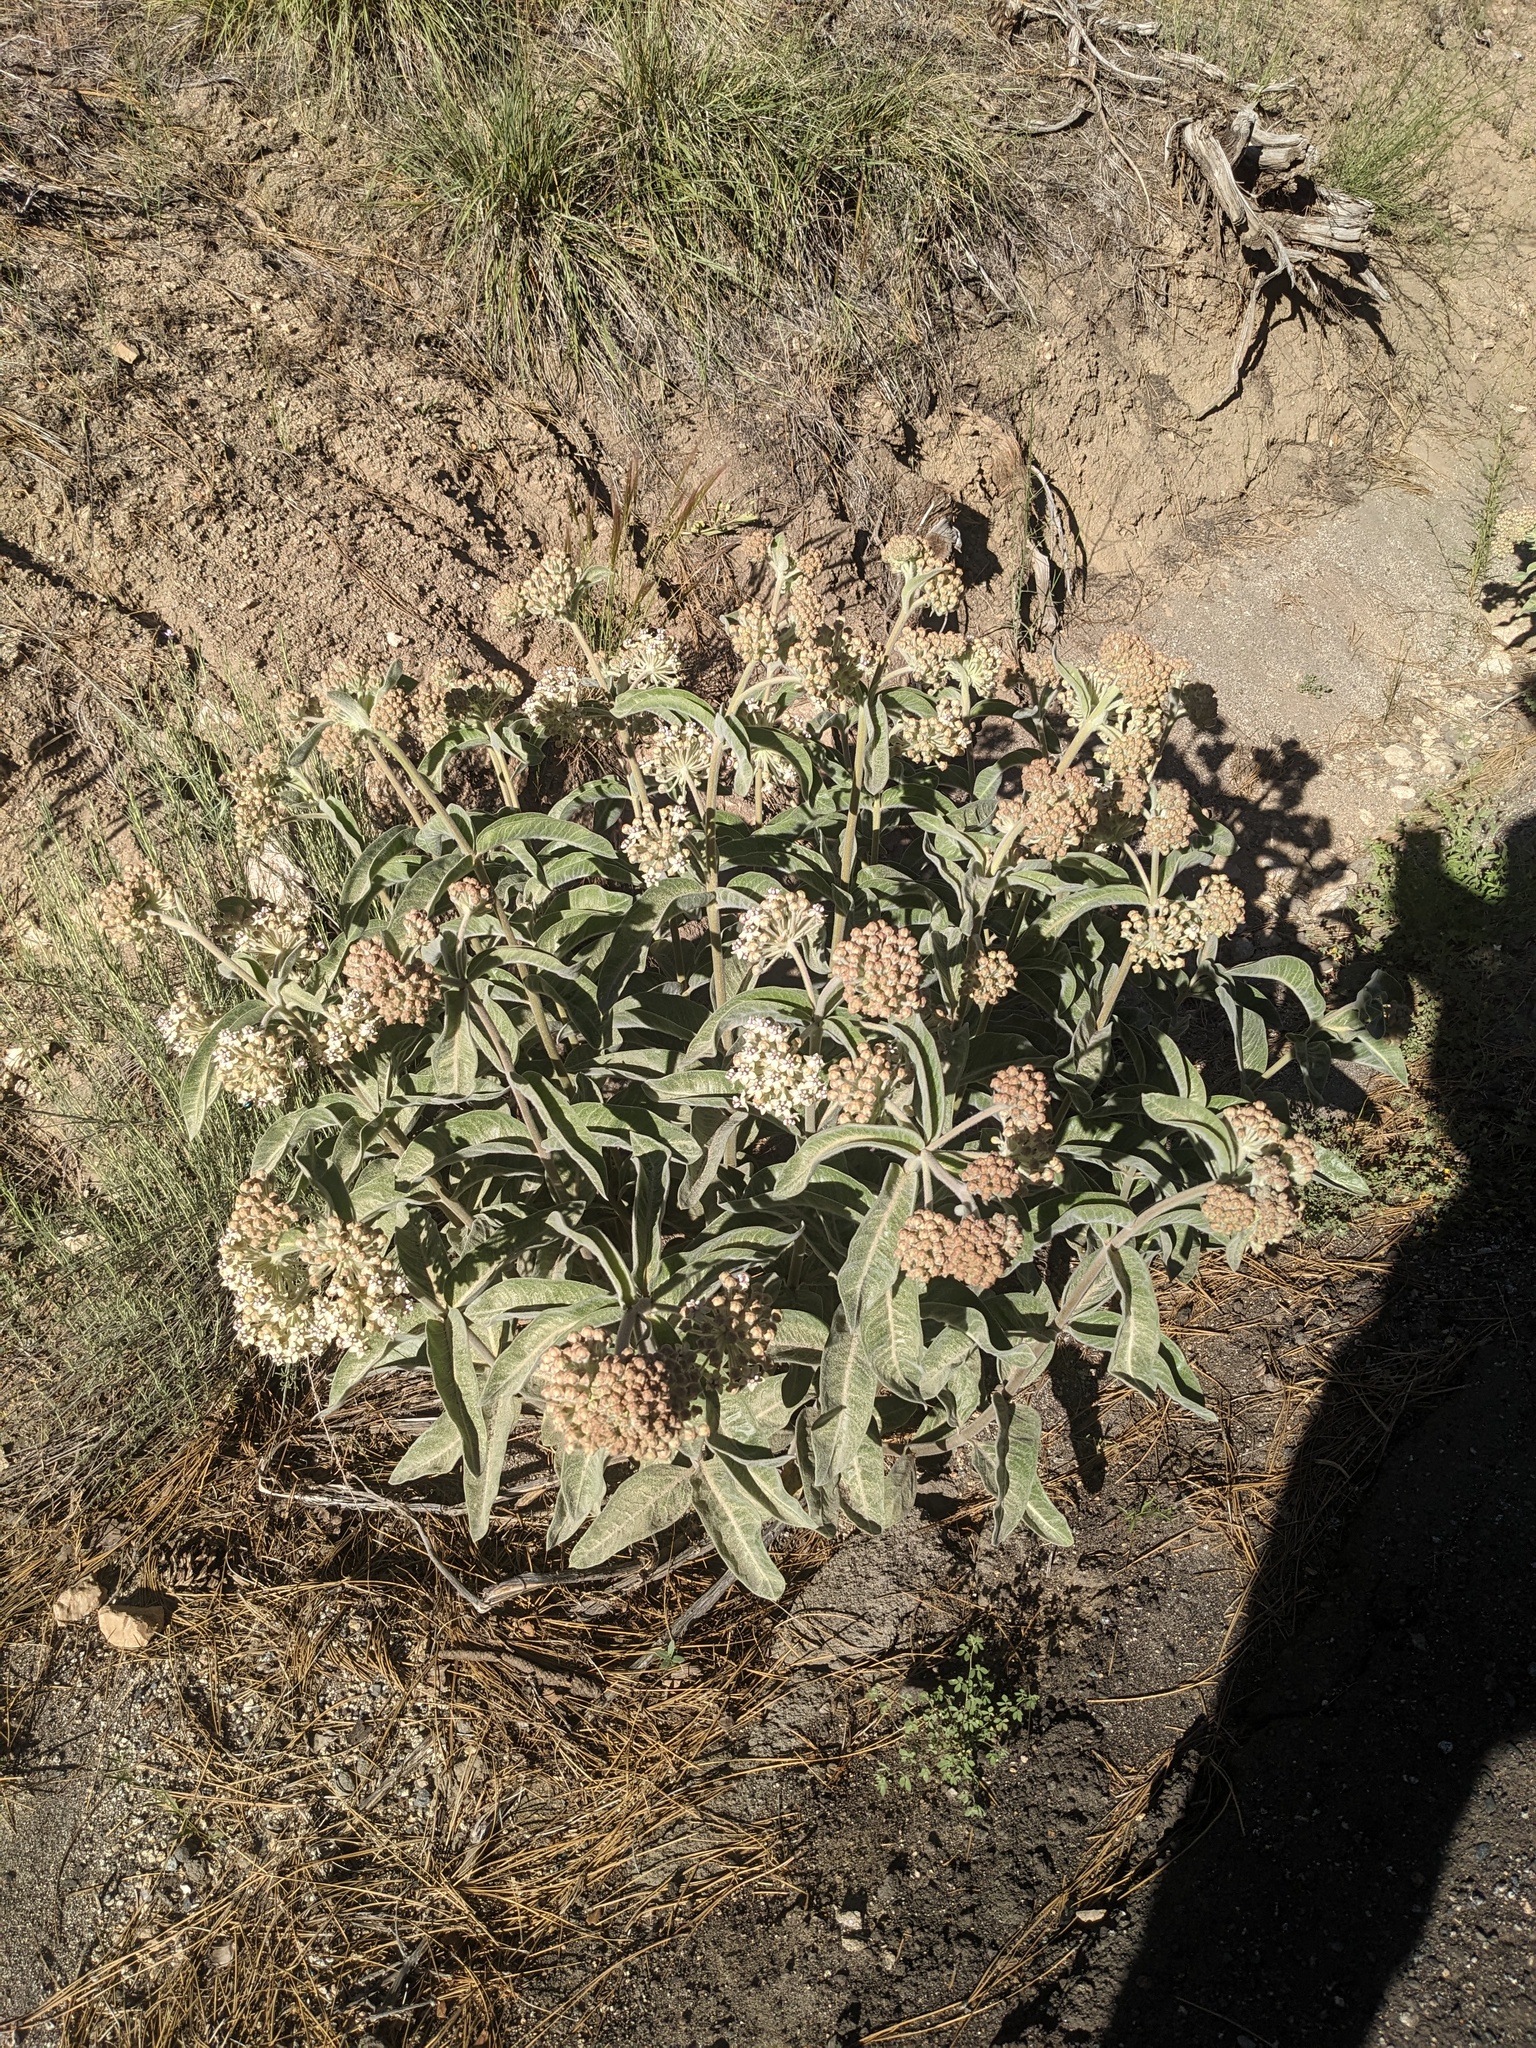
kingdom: Plantae
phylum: Tracheophyta
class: Magnoliopsida
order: Gentianales
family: Apocynaceae
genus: Asclepias
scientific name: Asclepias eriocarpa
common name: Indian milkweed
